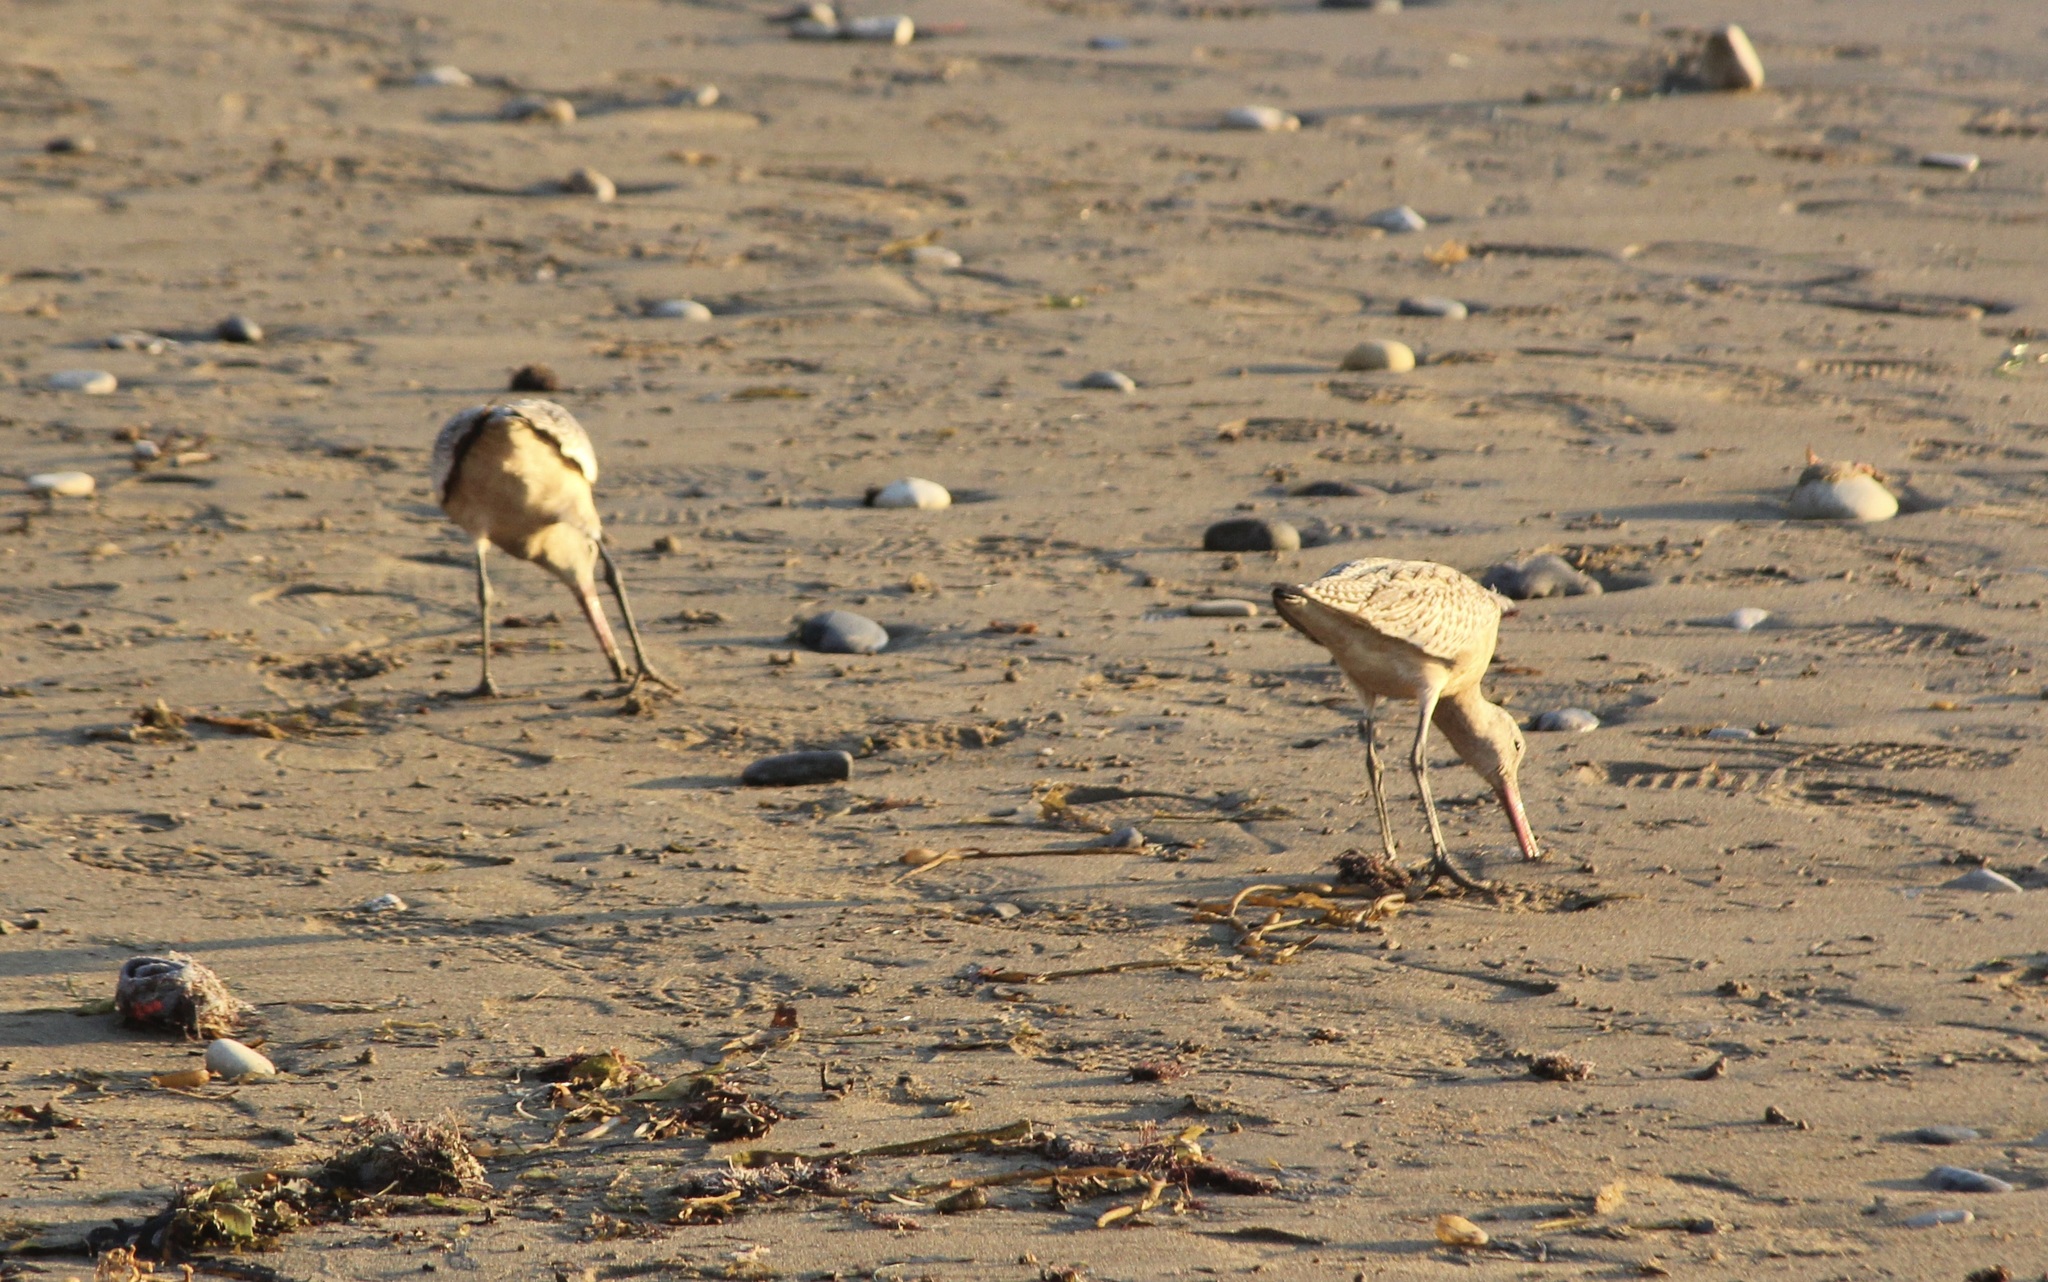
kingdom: Animalia
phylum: Chordata
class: Aves
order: Charadriiformes
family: Scolopacidae
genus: Limosa
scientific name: Limosa fedoa
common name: Marbled godwit
